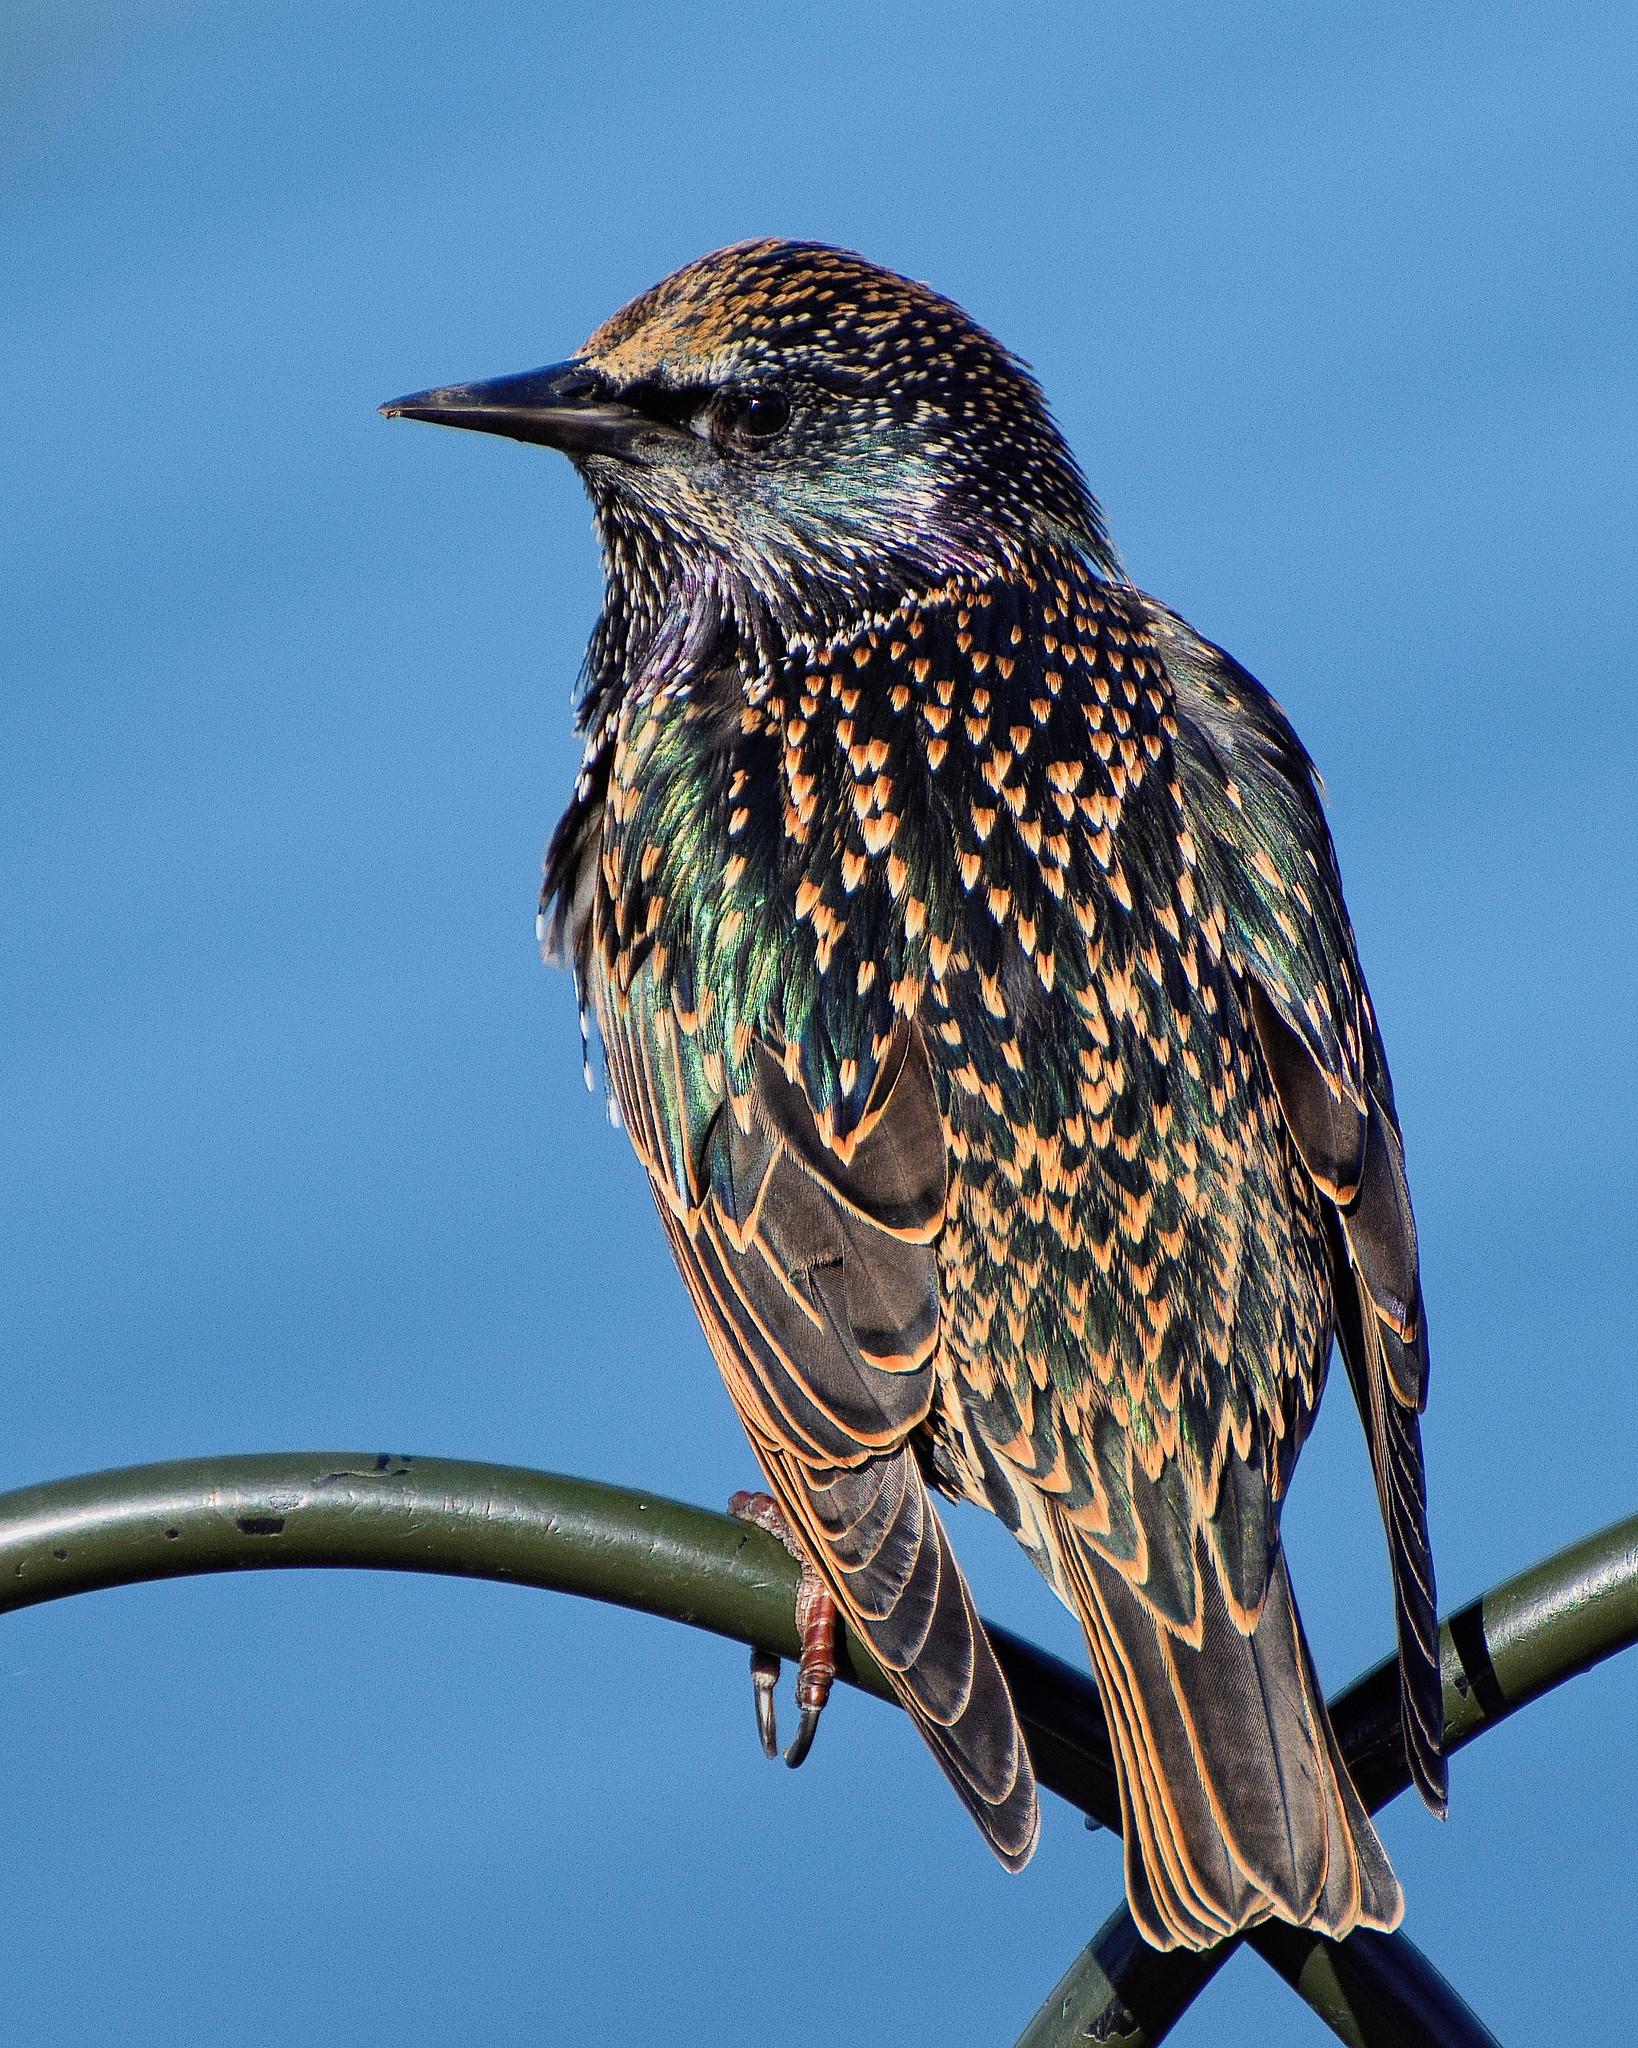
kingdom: Animalia
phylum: Chordata
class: Aves
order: Passeriformes
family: Sturnidae
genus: Sturnus
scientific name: Sturnus vulgaris
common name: Common starling
